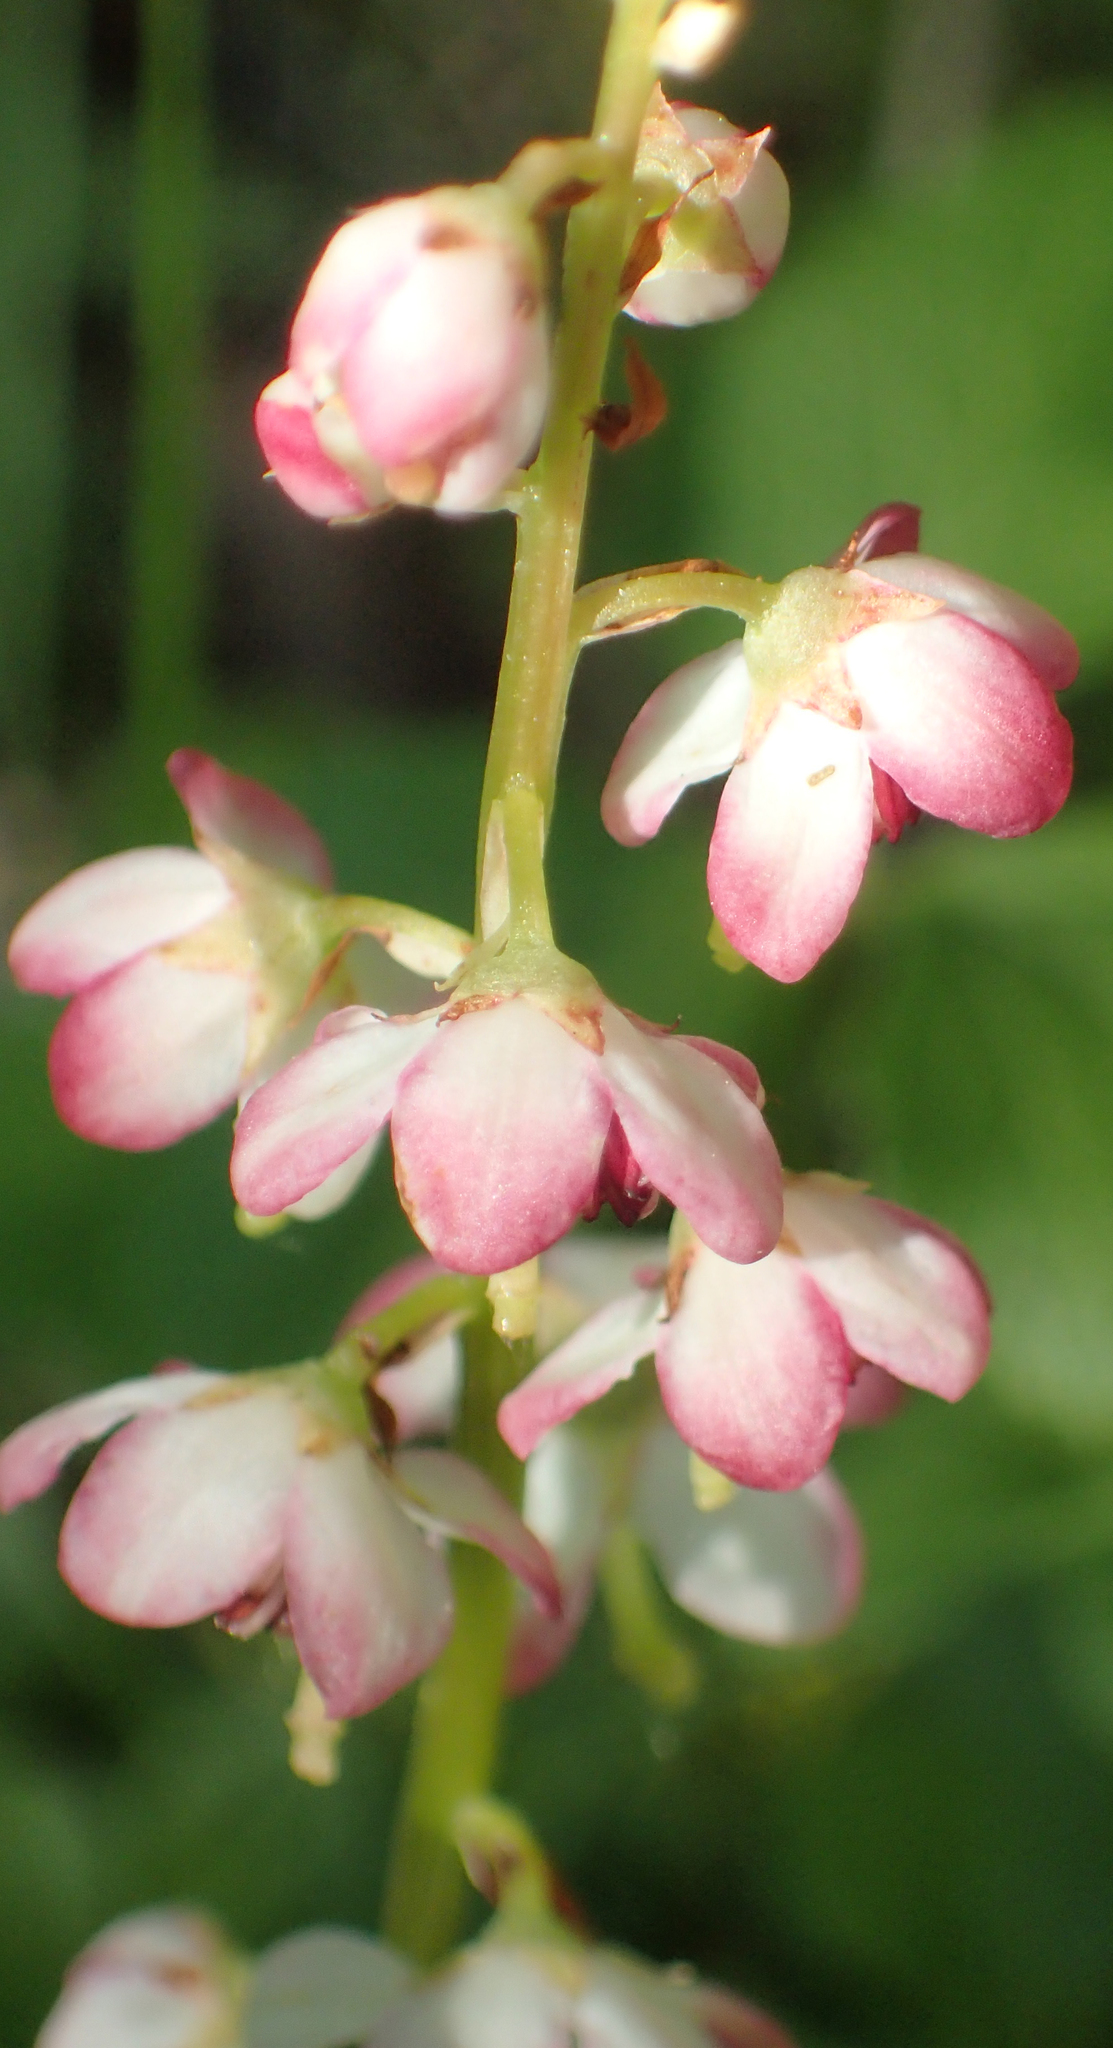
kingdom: Plantae
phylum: Tracheophyta
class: Magnoliopsida
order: Ericales
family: Ericaceae
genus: Pyrola
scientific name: Pyrola asarifolia
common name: Bog wintergreen
